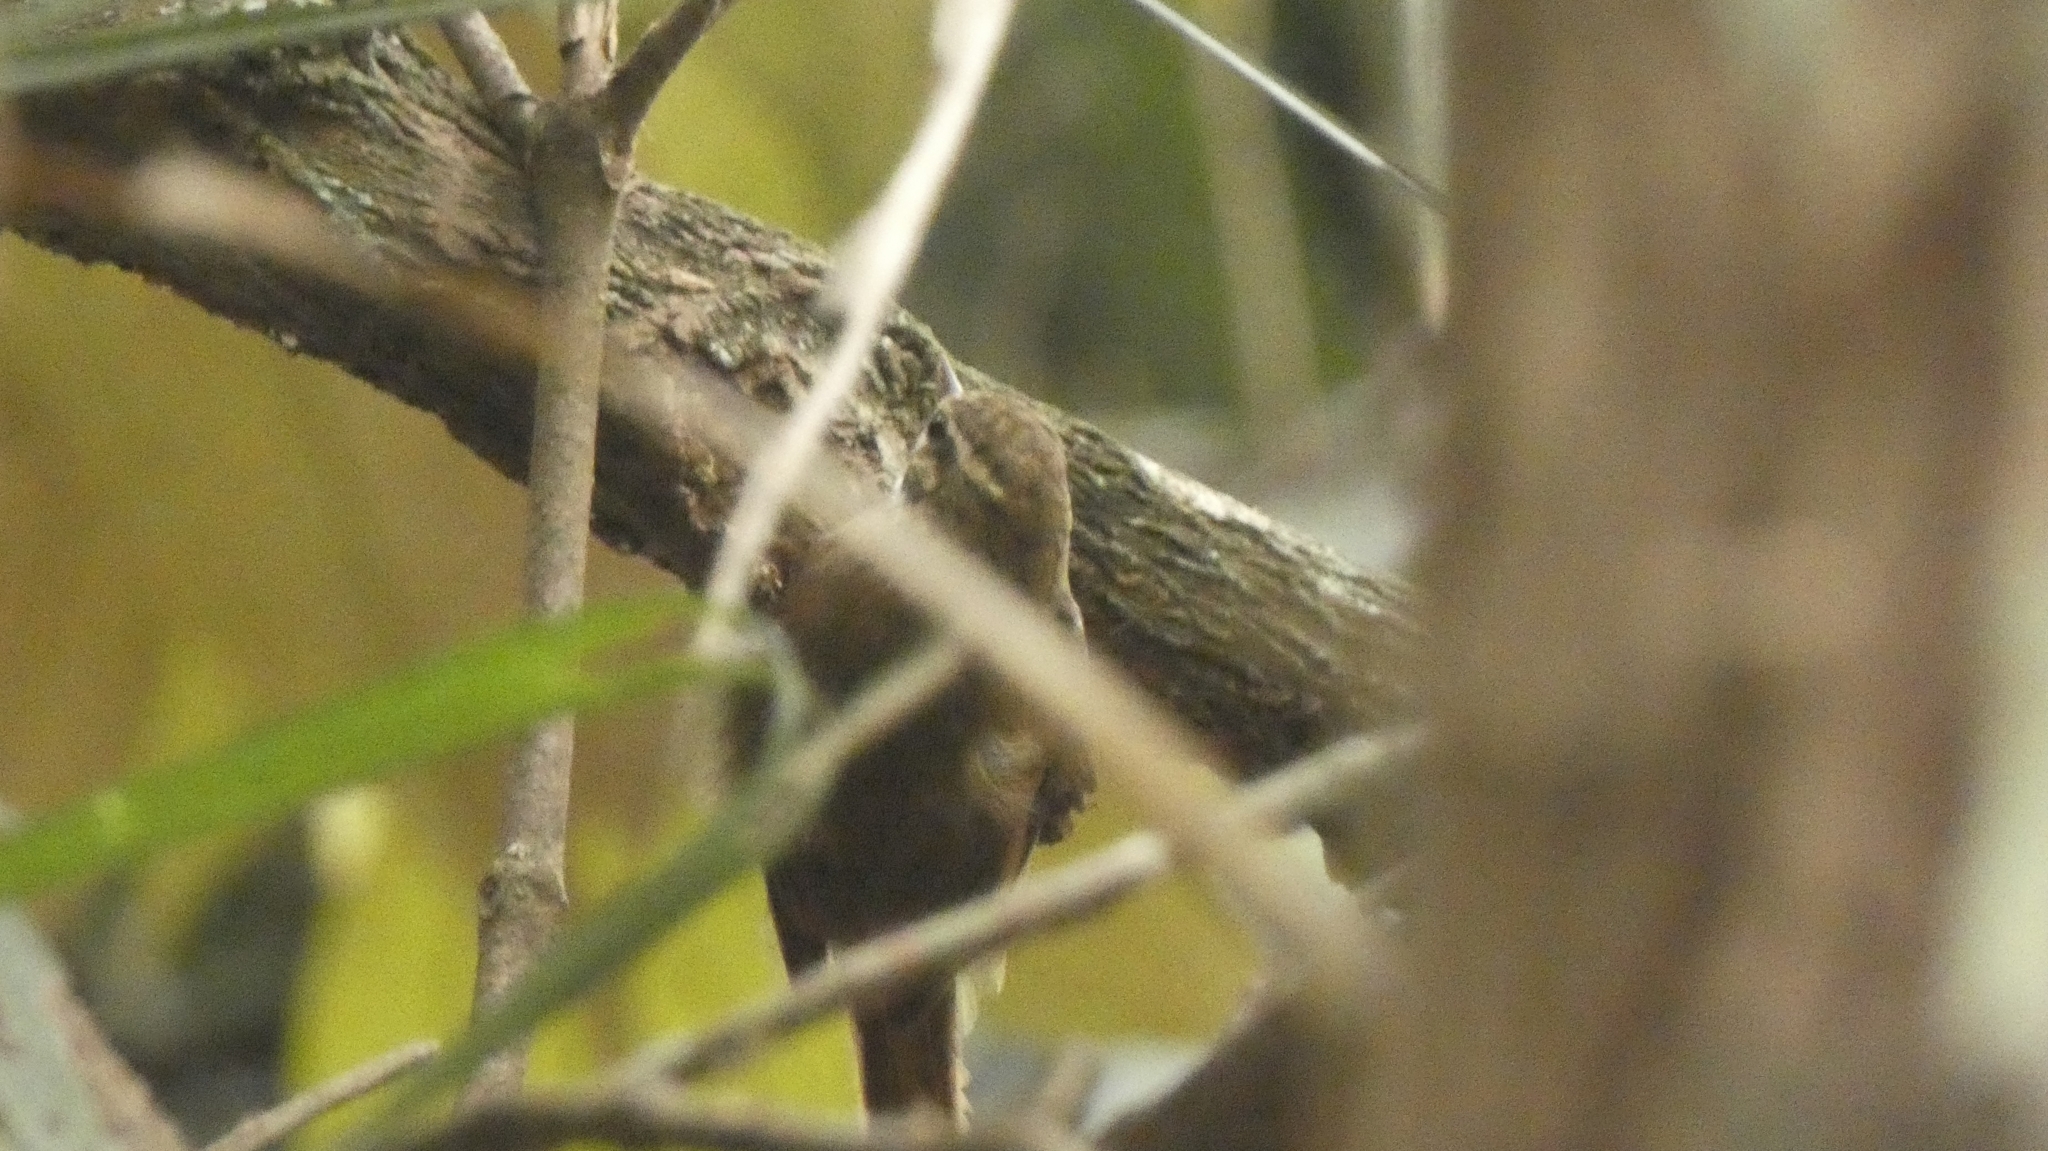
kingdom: Animalia
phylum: Chordata
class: Aves
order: Passeriformes
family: Furnariidae
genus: Xenops
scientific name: Xenops minutus
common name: Plain xenops
